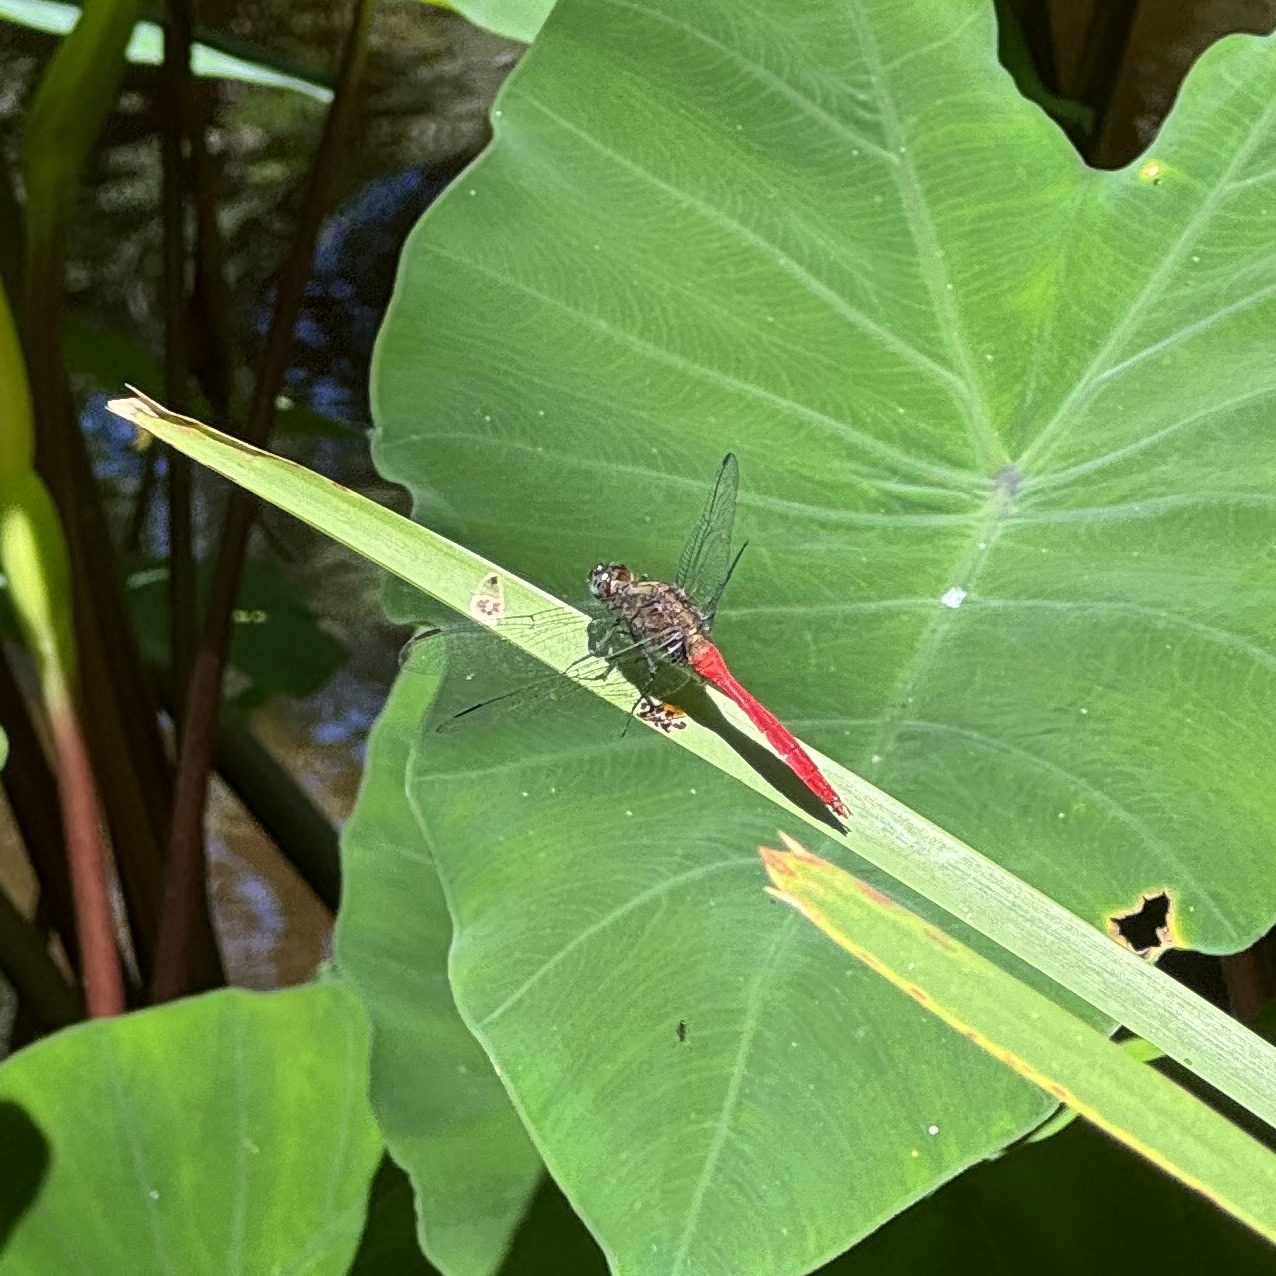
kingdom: Animalia
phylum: Arthropoda
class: Insecta
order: Odonata
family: Libellulidae
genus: Orthetrum
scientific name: Orthetrum villosovittatum
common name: Firery skimmer
